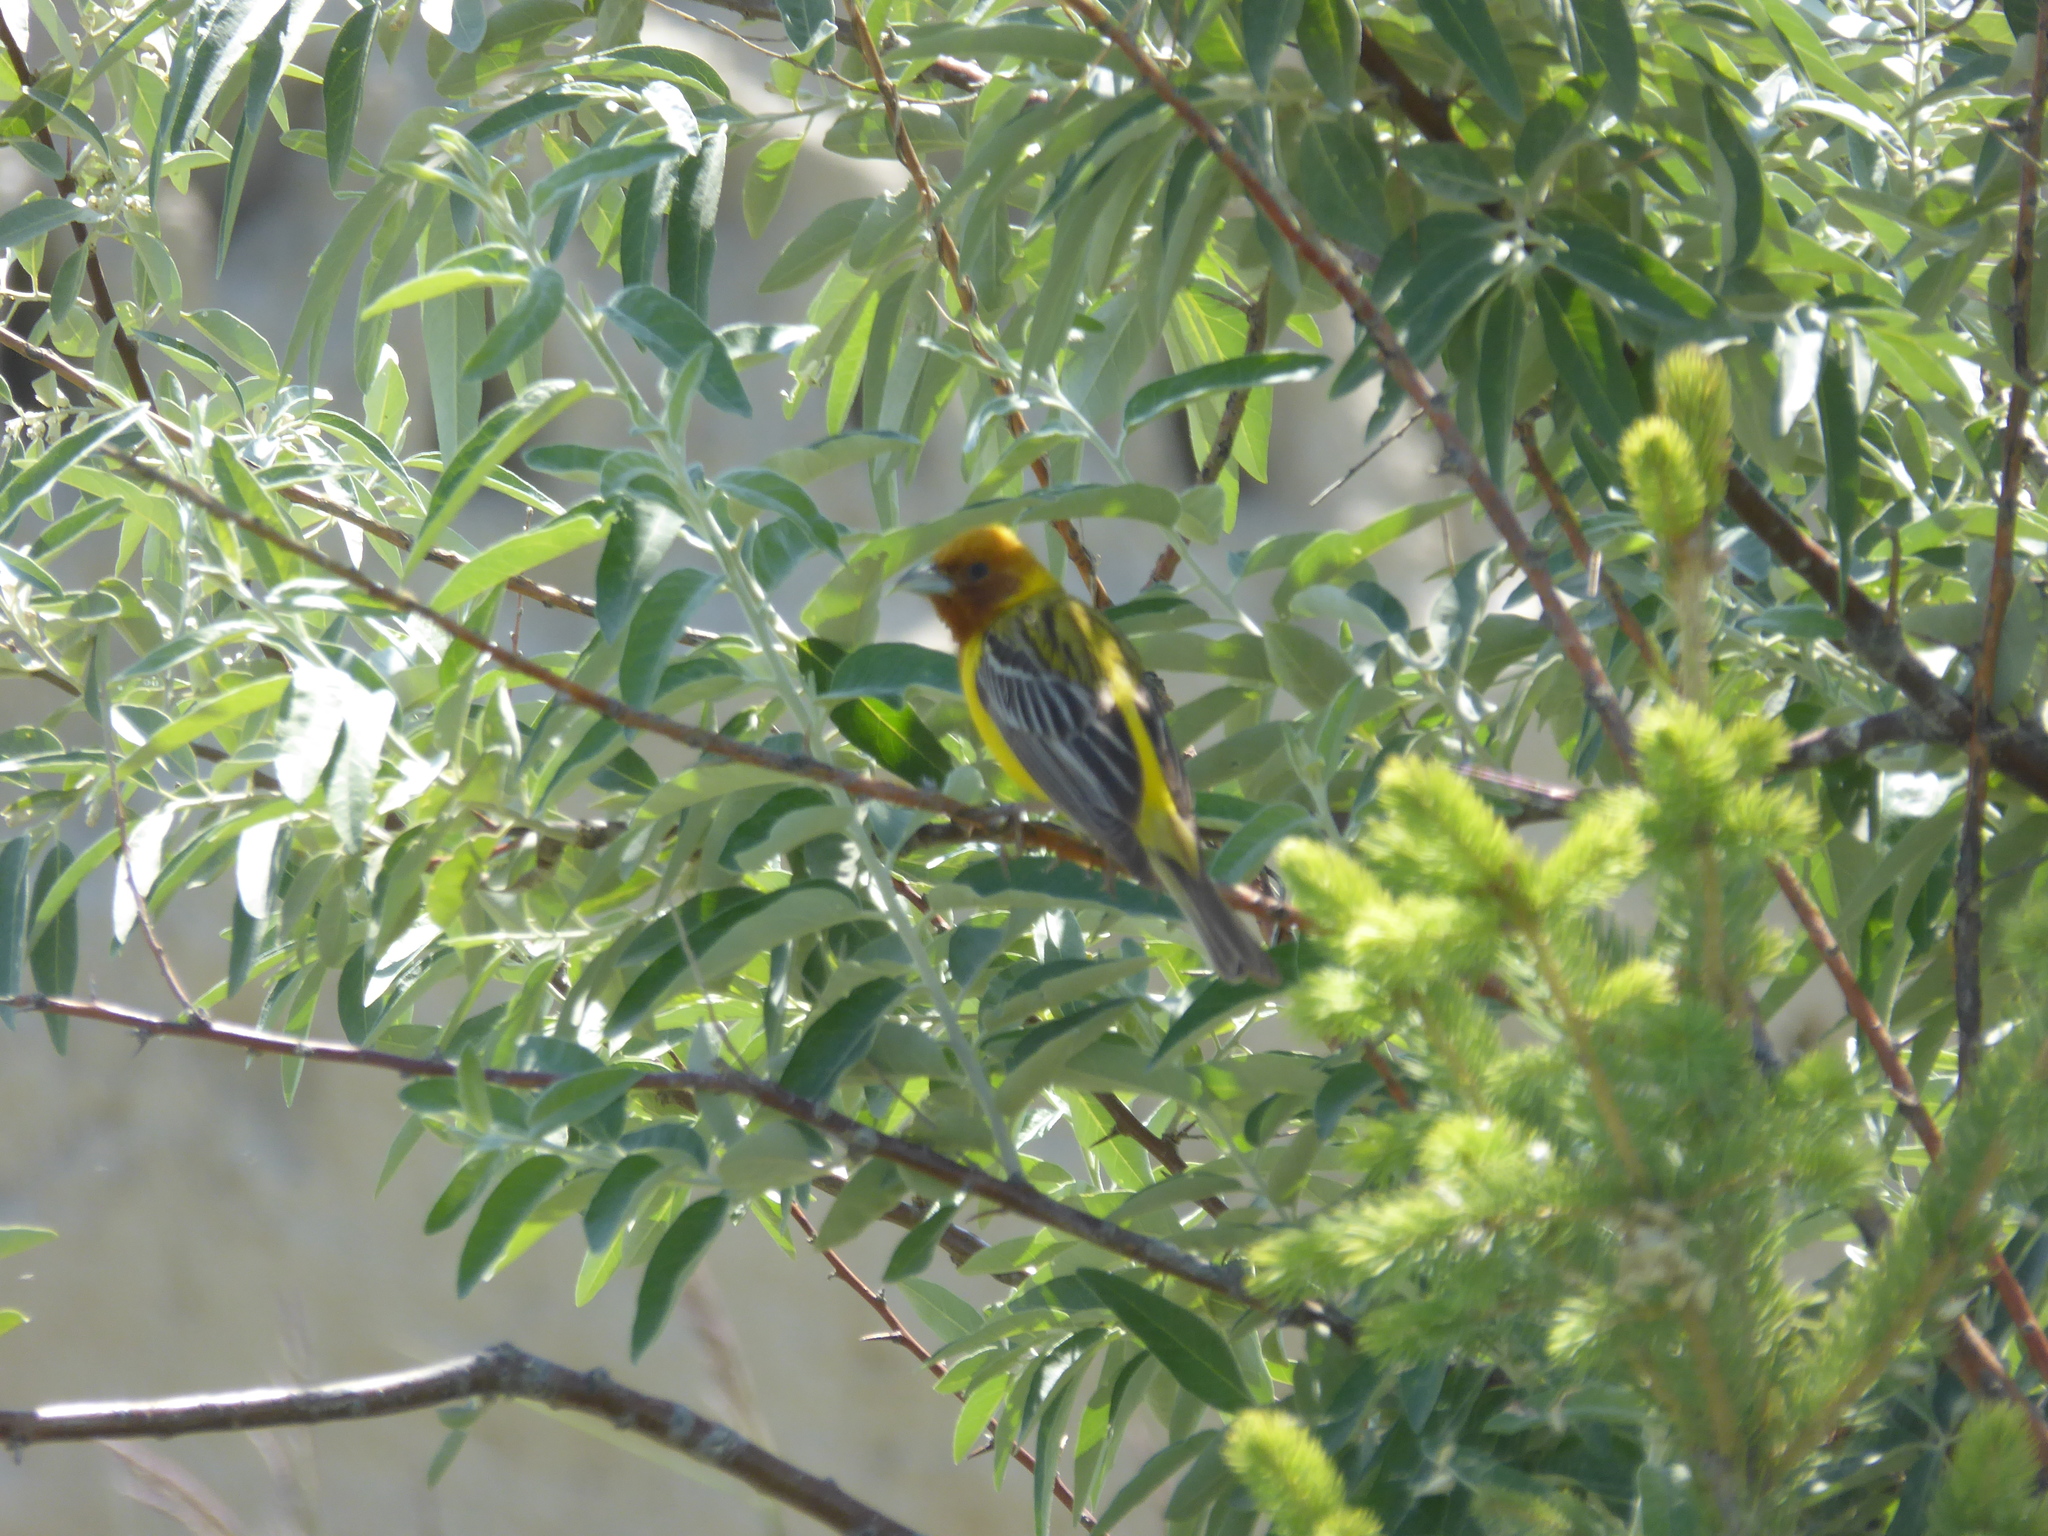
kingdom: Animalia
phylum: Chordata
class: Aves
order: Passeriformes
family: Emberizidae
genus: Emberiza
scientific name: Emberiza bruniceps
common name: Red-headed bunting
